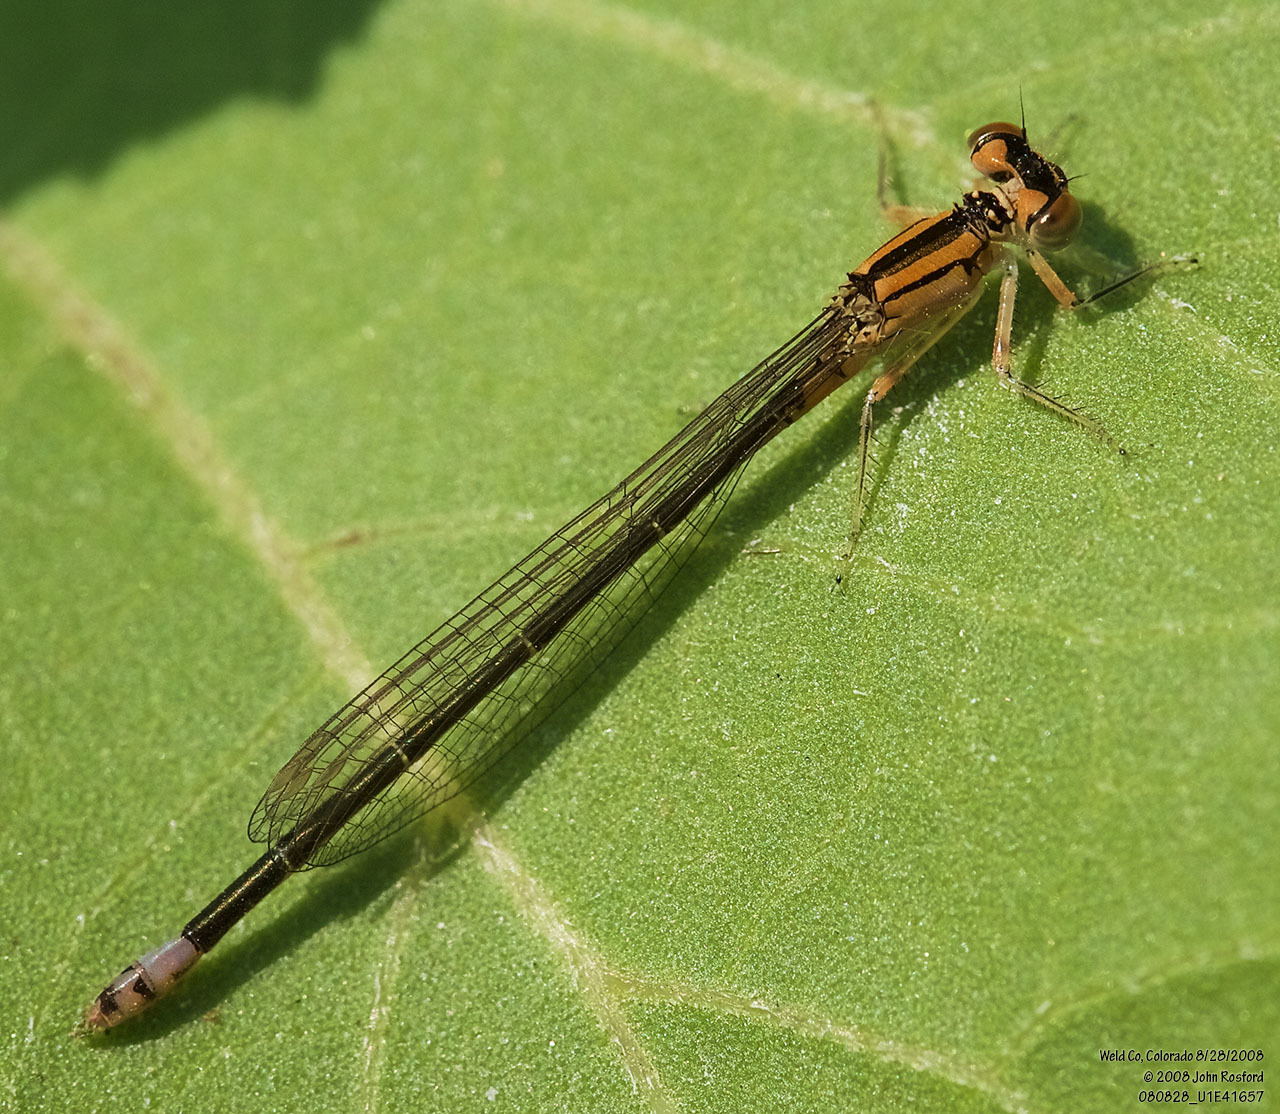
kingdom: Animalia
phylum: Arthropoda
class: Insecta
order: Odonata
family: Coenagrionidae
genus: Ischnura
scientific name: Ischnura damula
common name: Plains forktail
